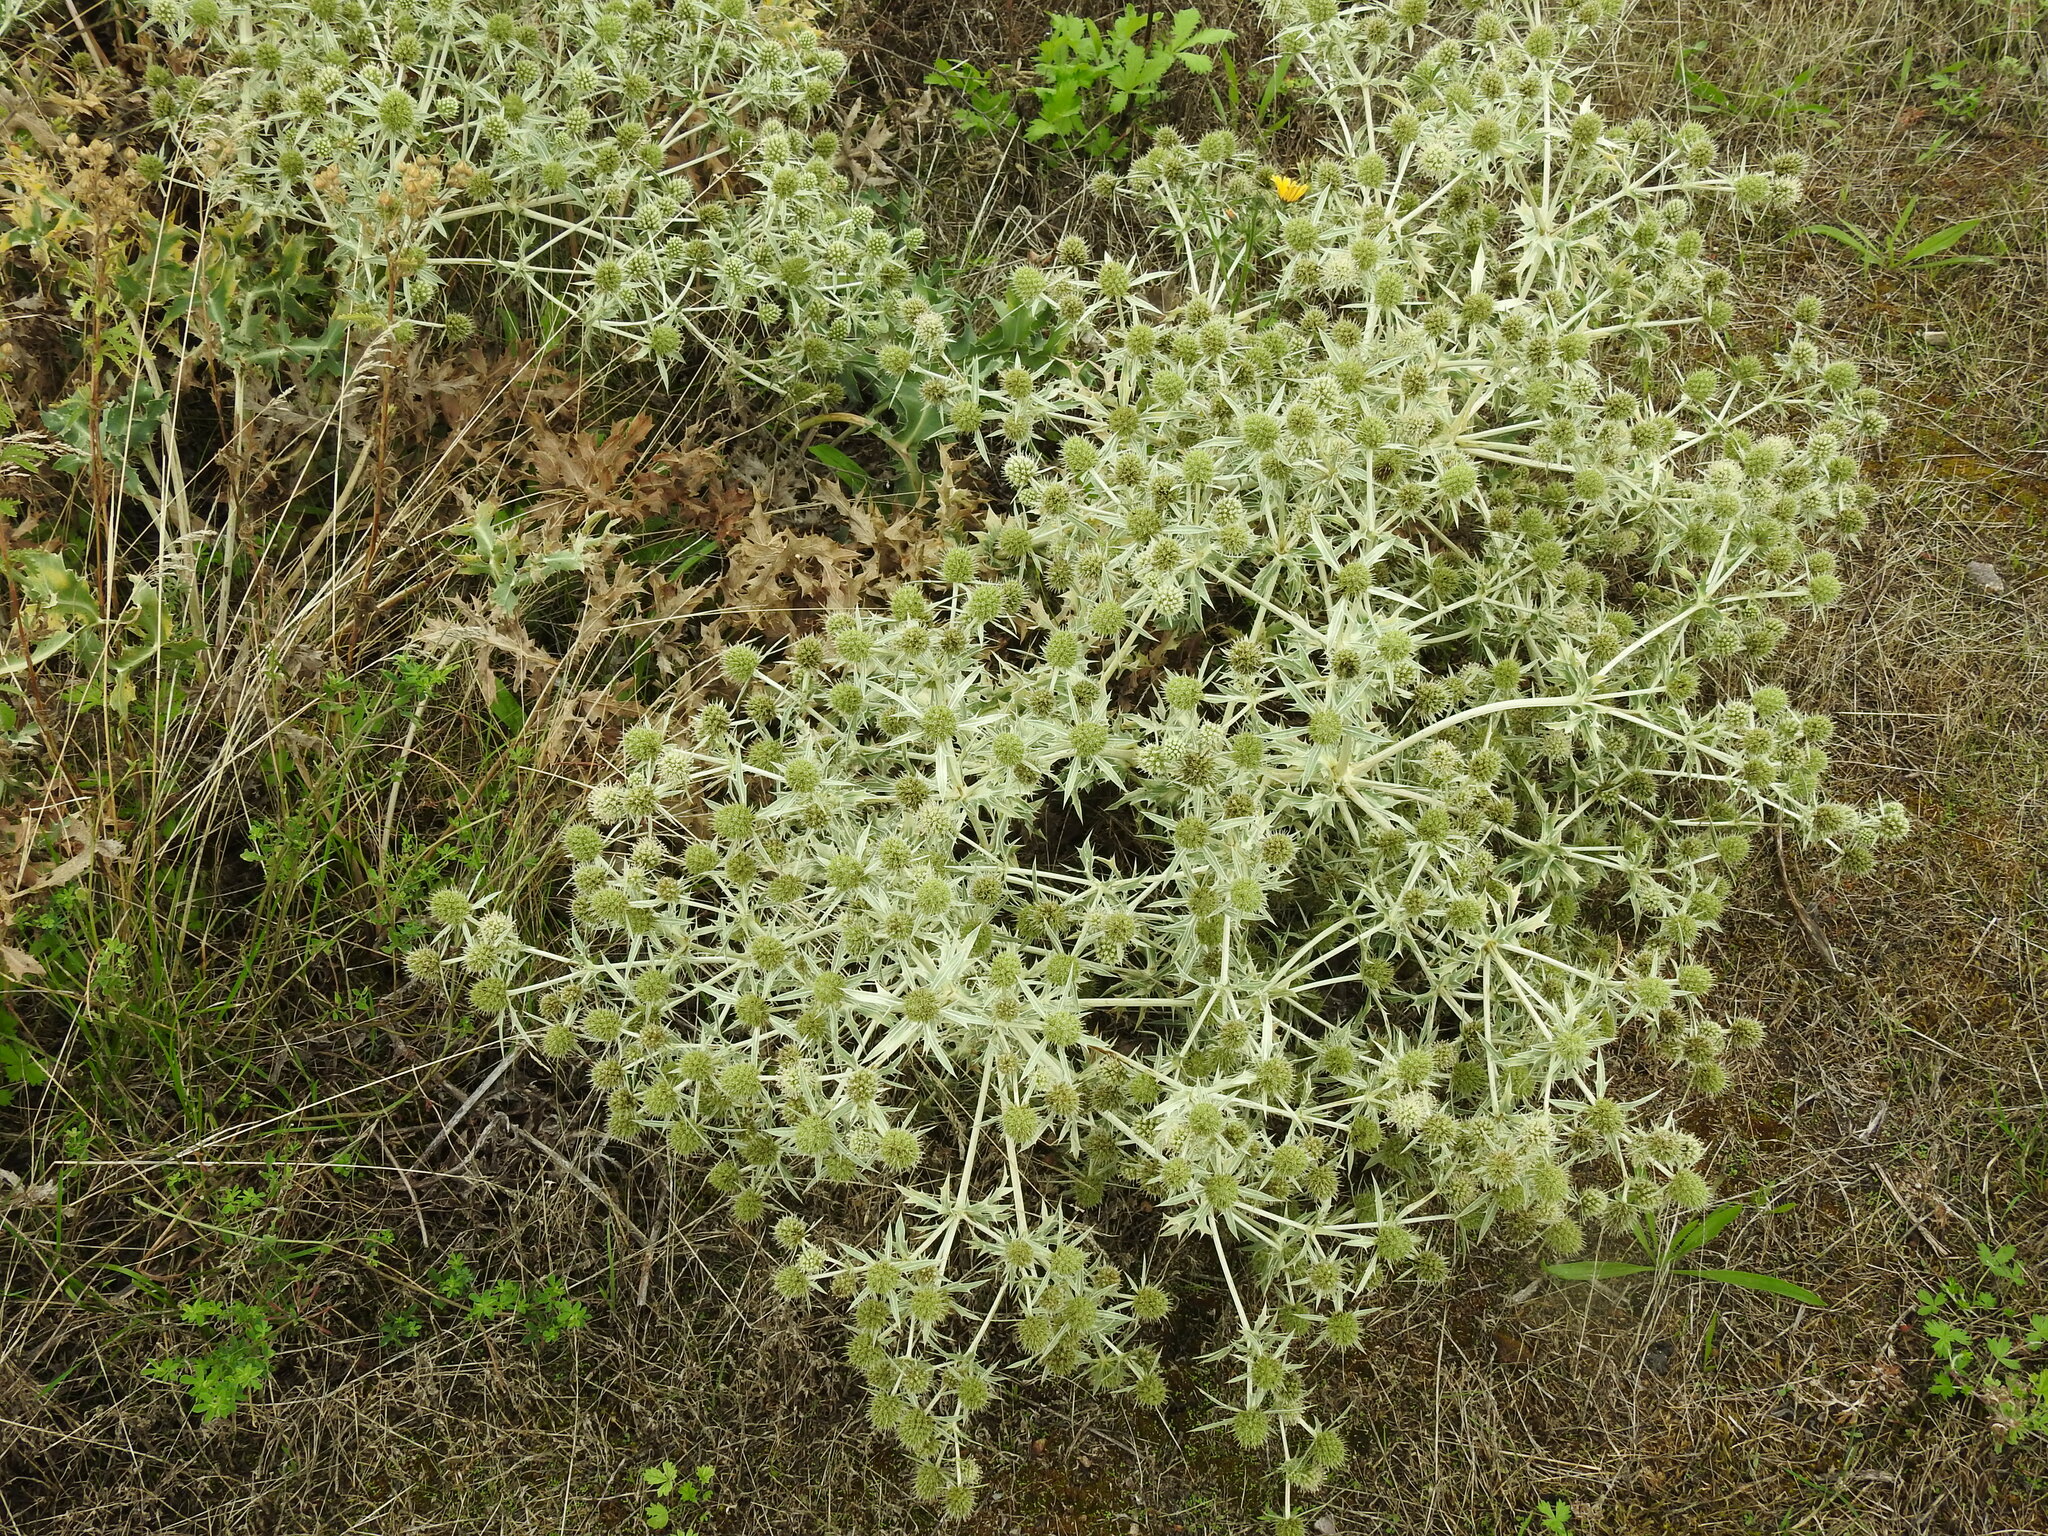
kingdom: Plantae
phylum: Tracheophyta
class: Magnoliopsida
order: Apiales
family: Apiaceae
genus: Eryngium
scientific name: Eryngium campestre
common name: Field eryngo
